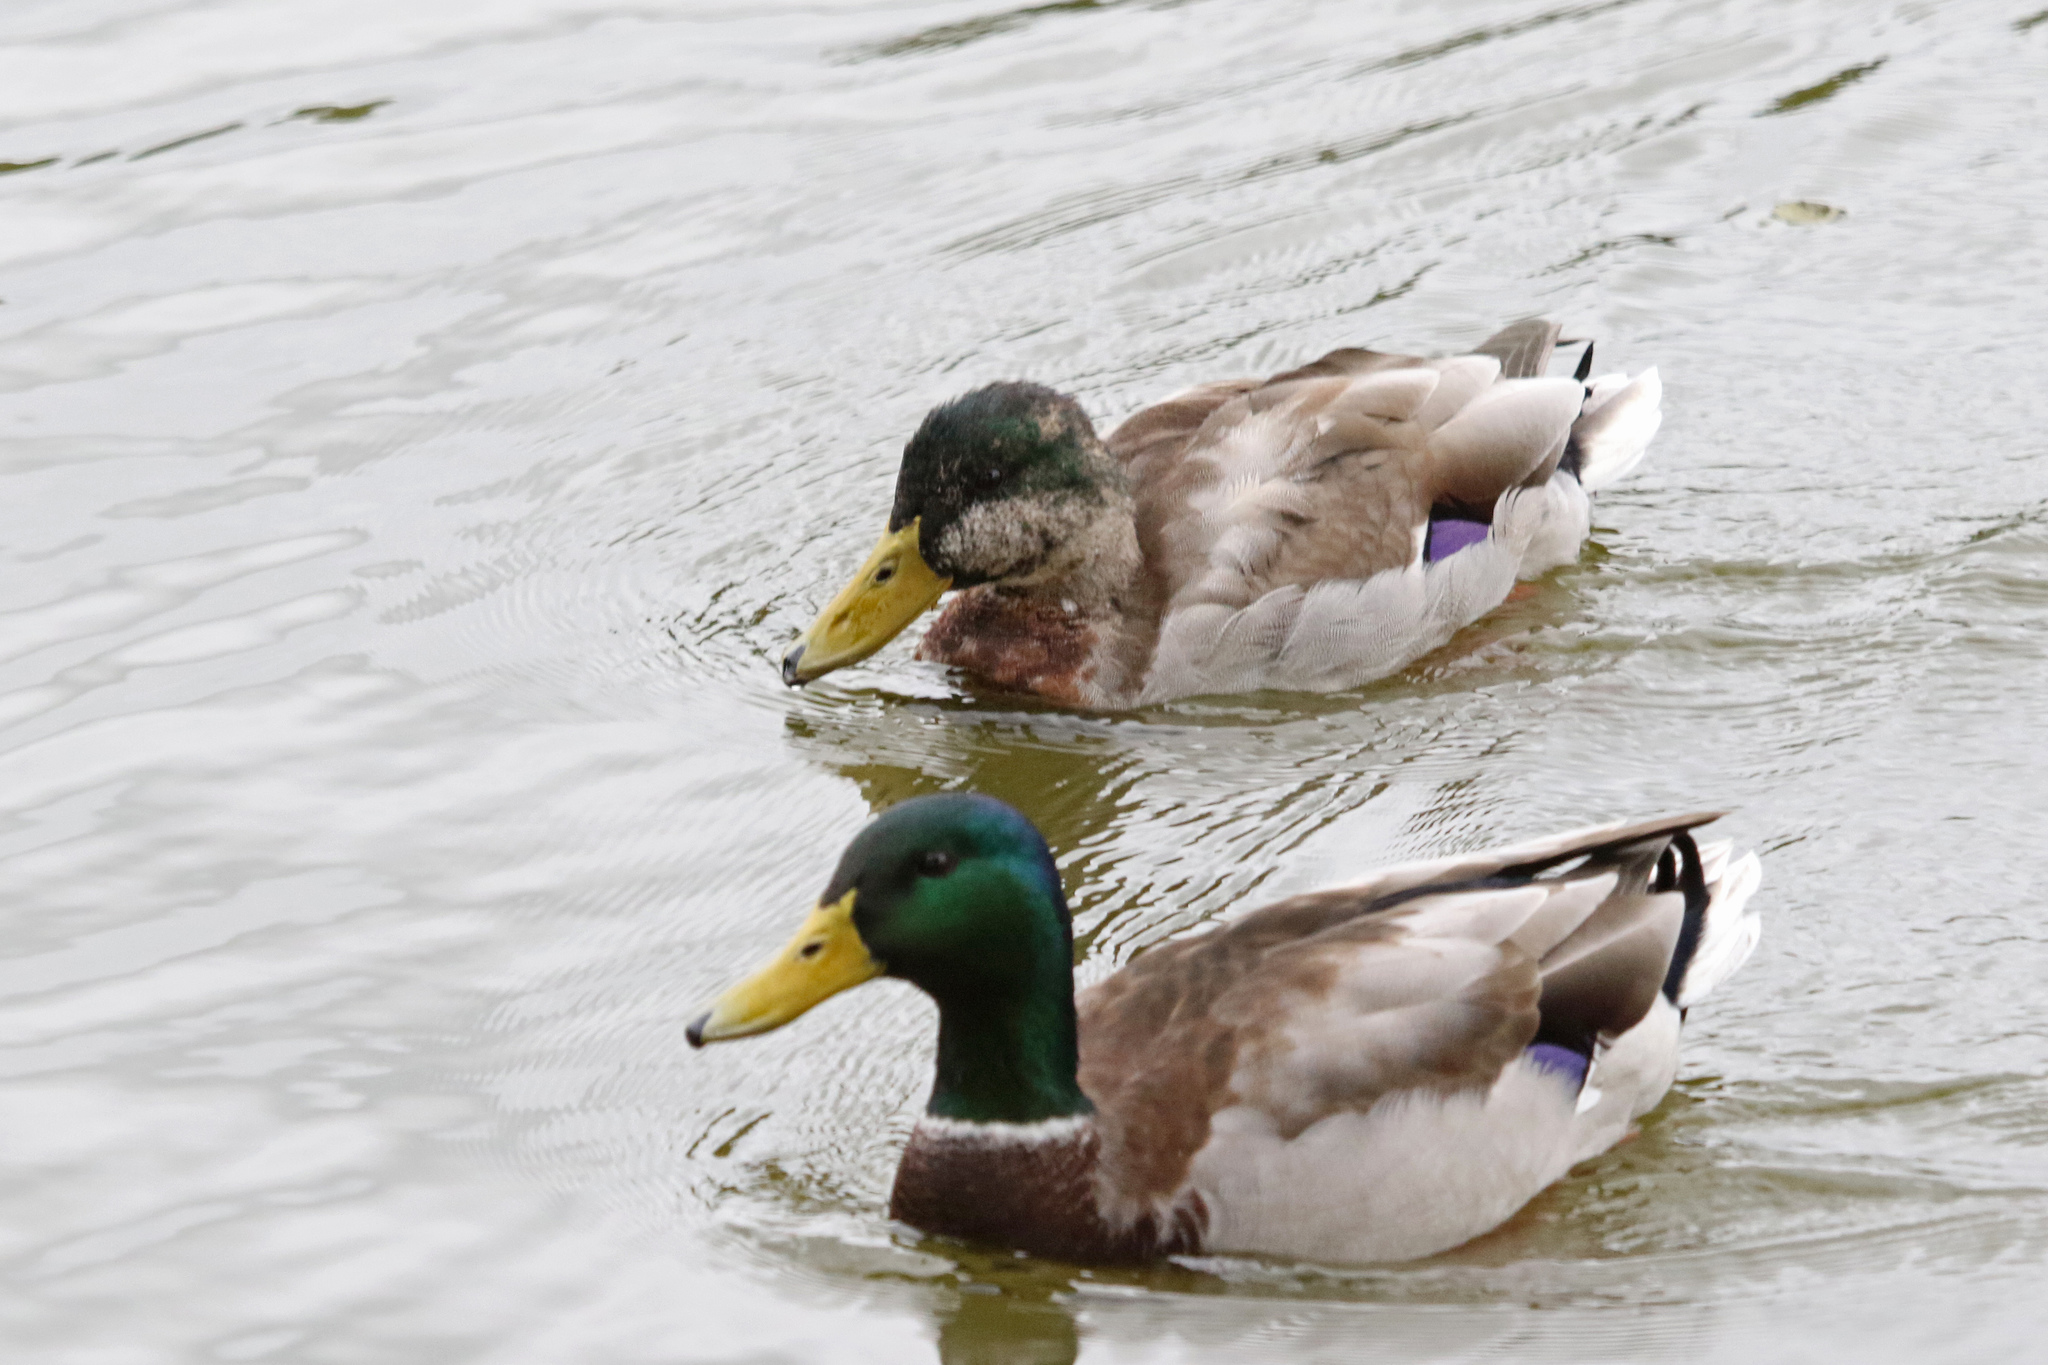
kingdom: Animalia
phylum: Chordata
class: Aves
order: Anseriformes
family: Anatidae
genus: Anas
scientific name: Anas platyrhynchos
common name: Mallard
